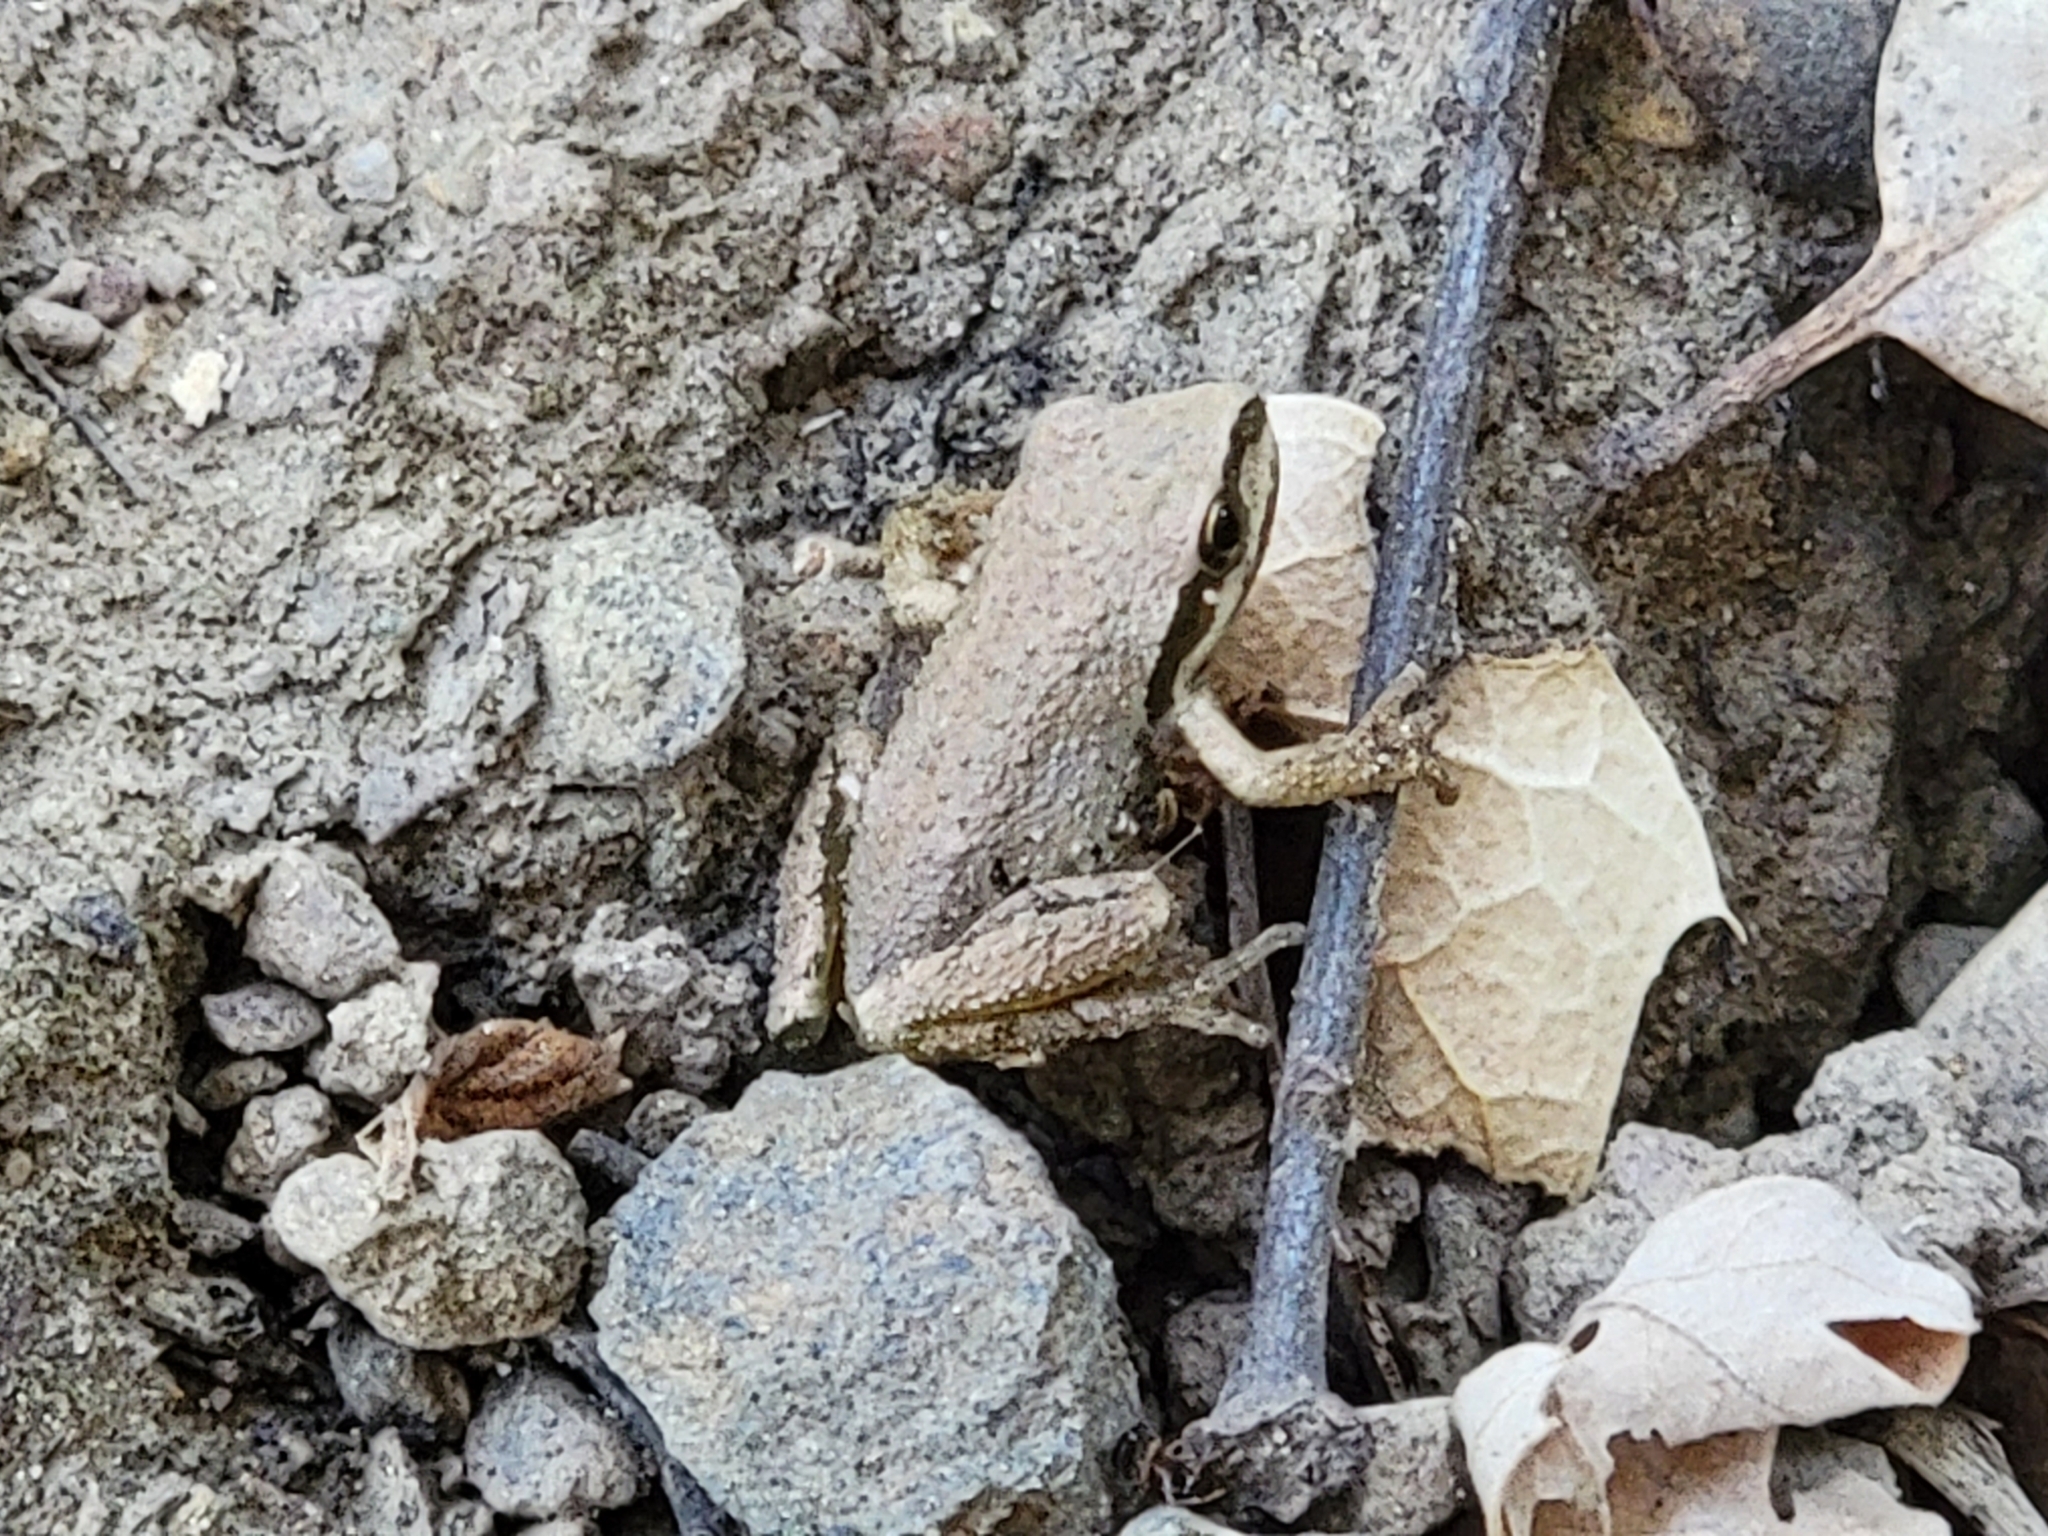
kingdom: Animalia
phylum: Chordata
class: Amphibia
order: Anura
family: Hylidae
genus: Pseudacris
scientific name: Pseudacris regilla
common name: Pacific chorus frog
